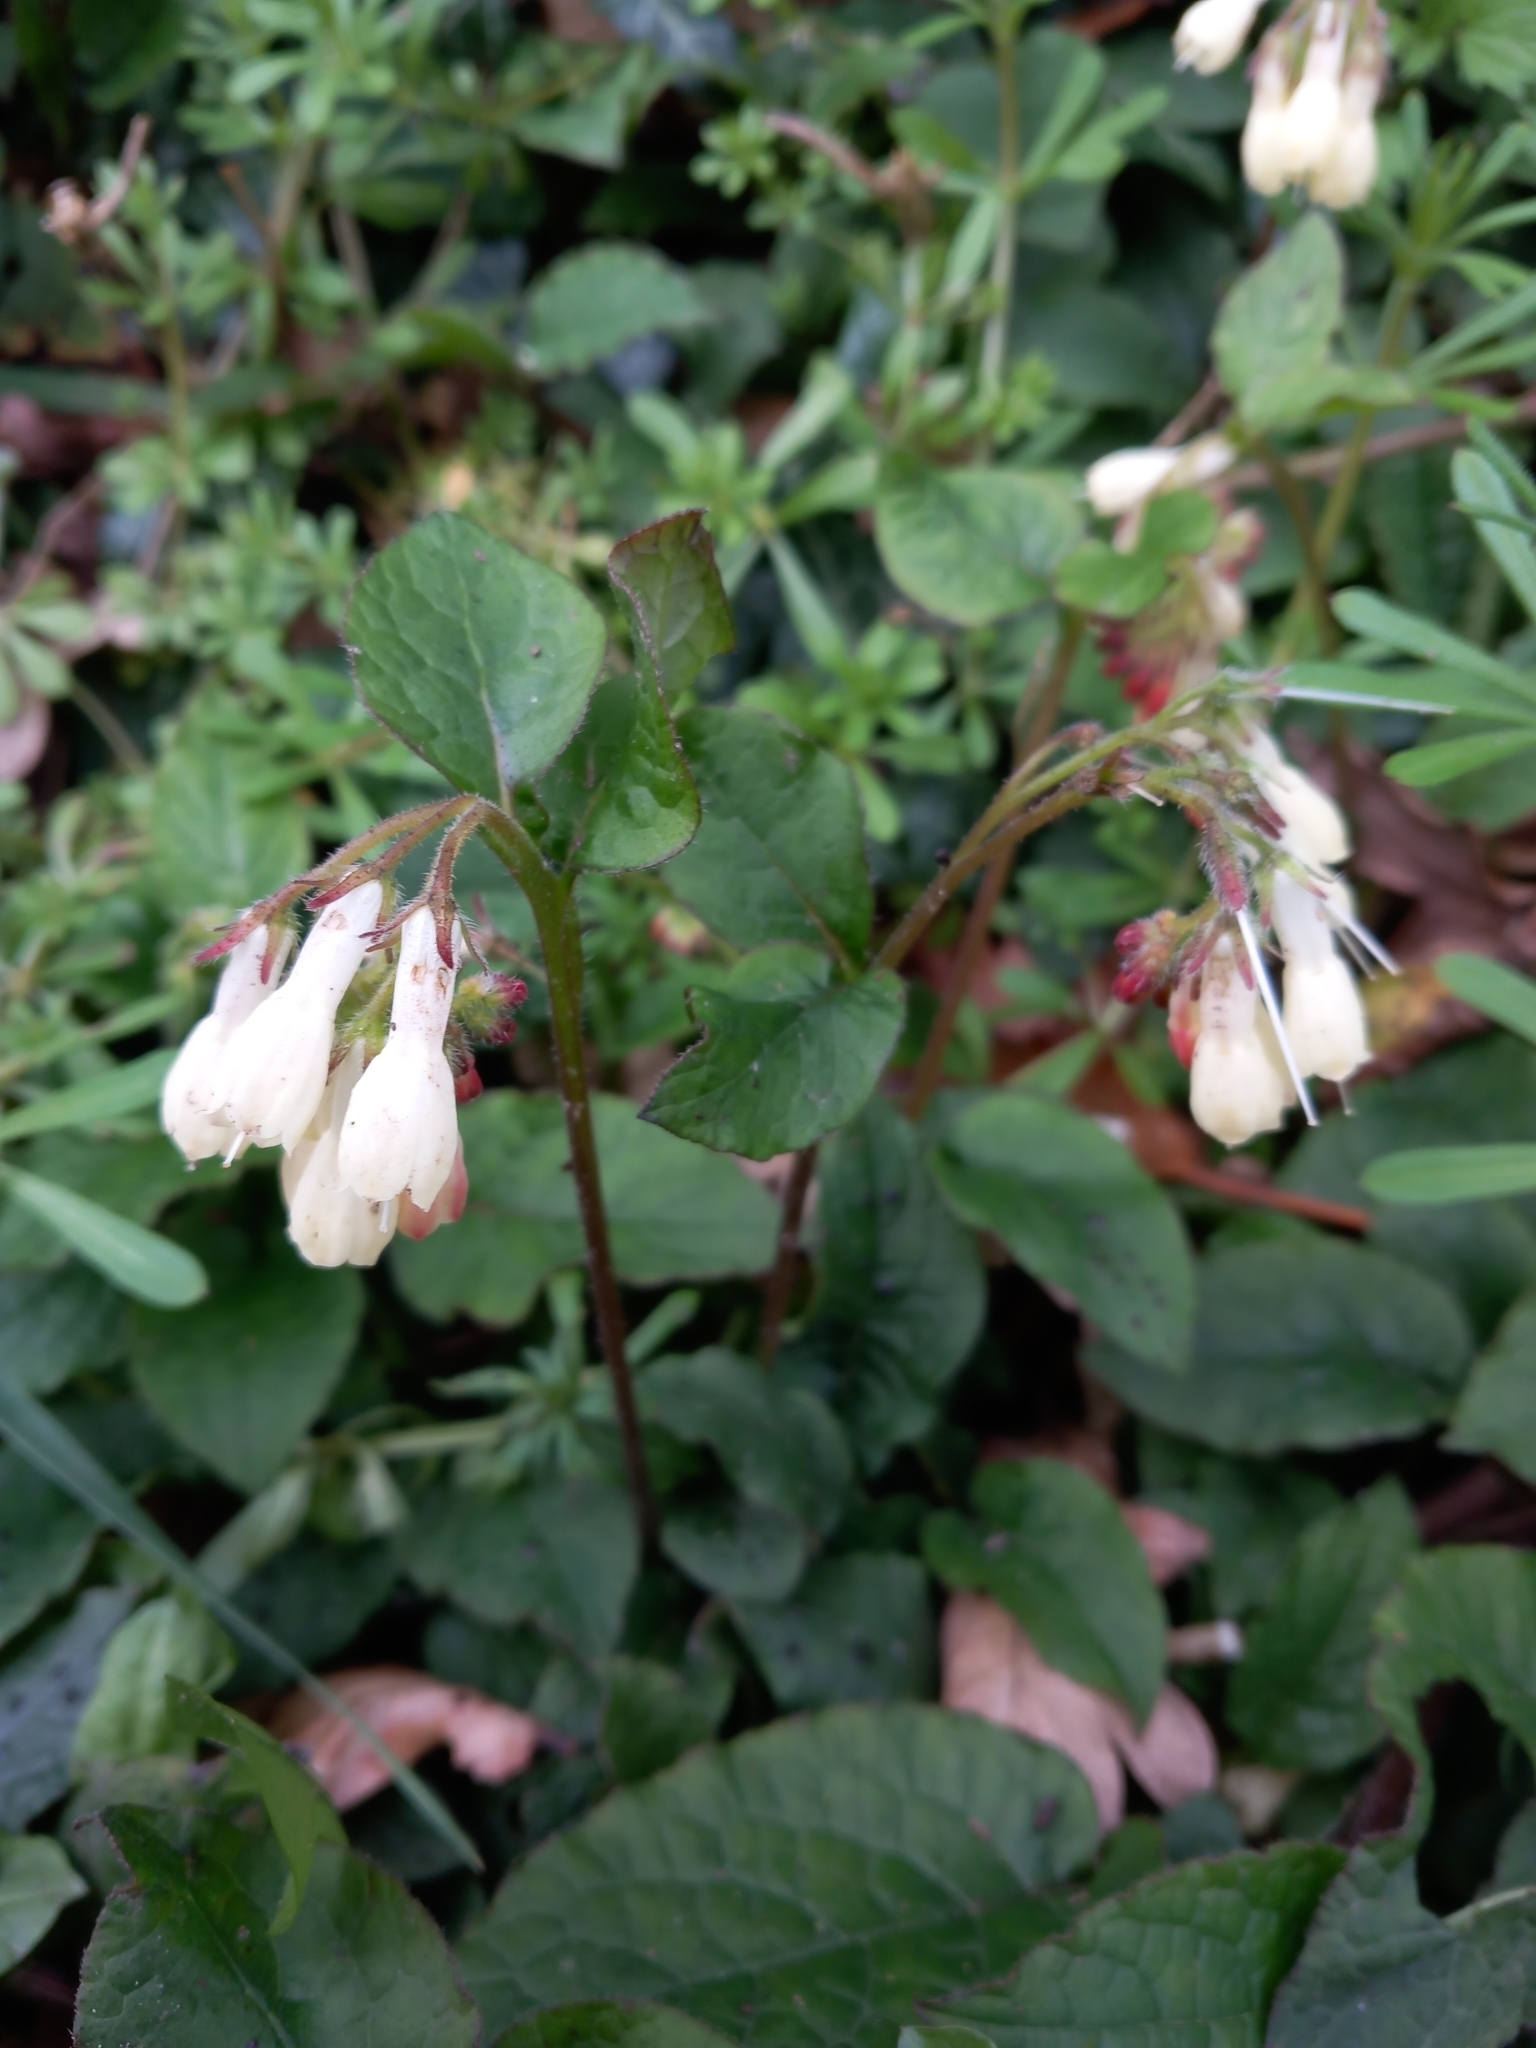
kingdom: Plantae
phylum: Tracheophyta
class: Magnoliopsida
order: Boraginales
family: Boraginaceae
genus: Symphytum
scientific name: Symphytum grandiflorum
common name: Creeping comfrey
